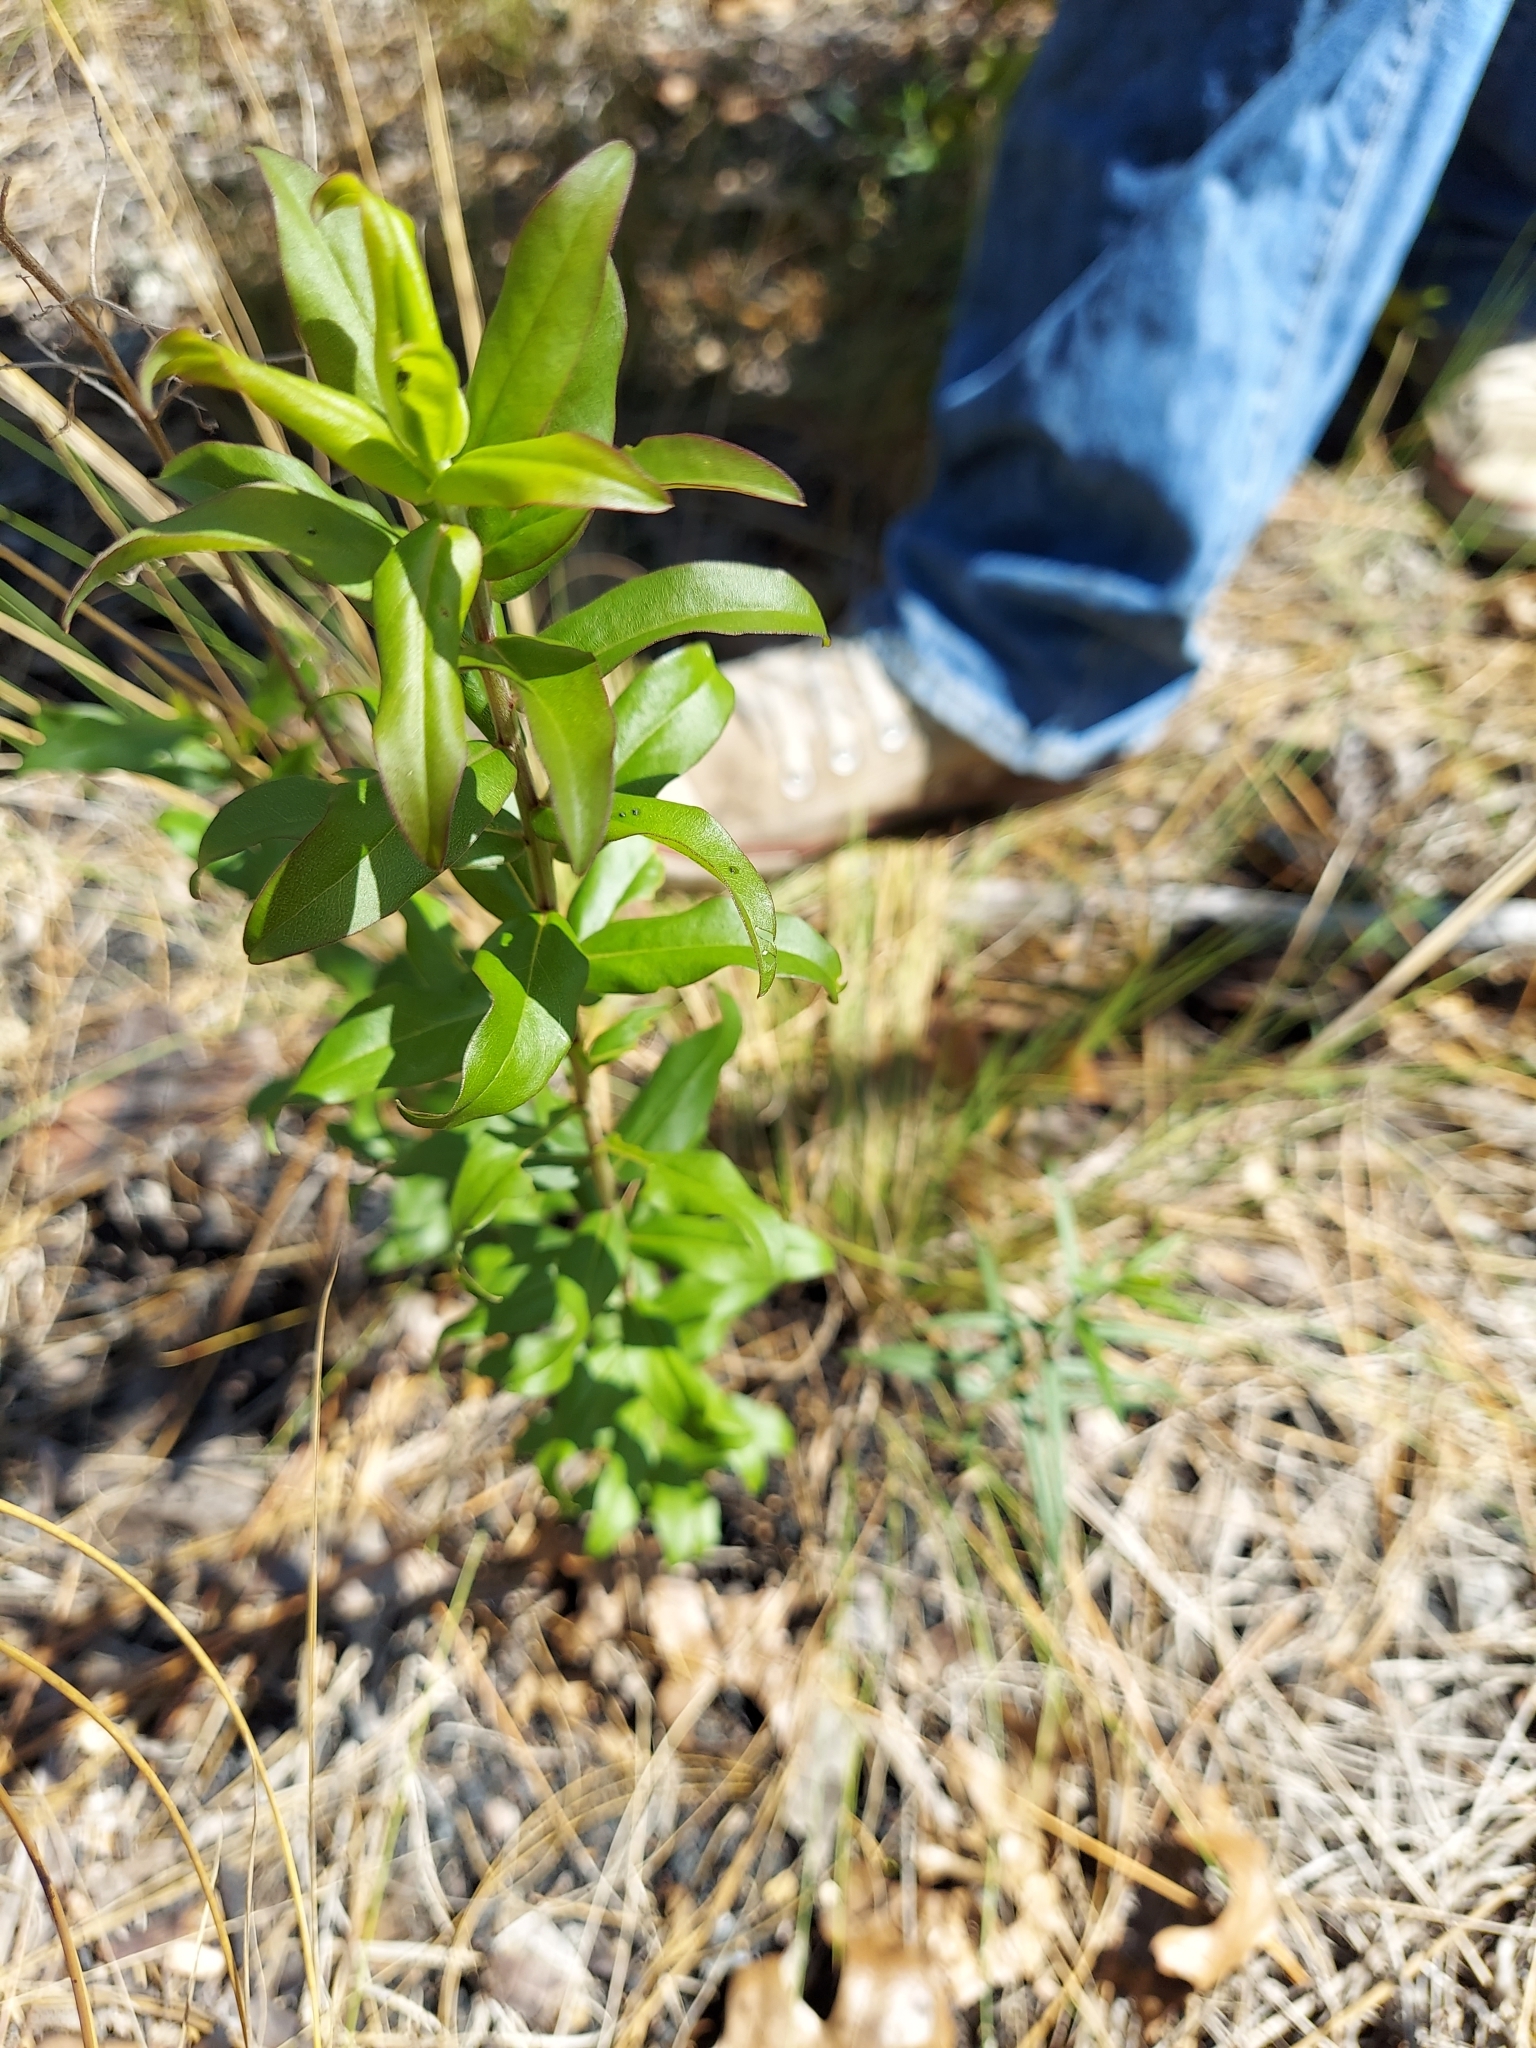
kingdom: Plantae
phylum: Tracheophyta
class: Magnoliopsida
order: Asterales
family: Asteraceae
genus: Solidago
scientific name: Solidago chapmanii
